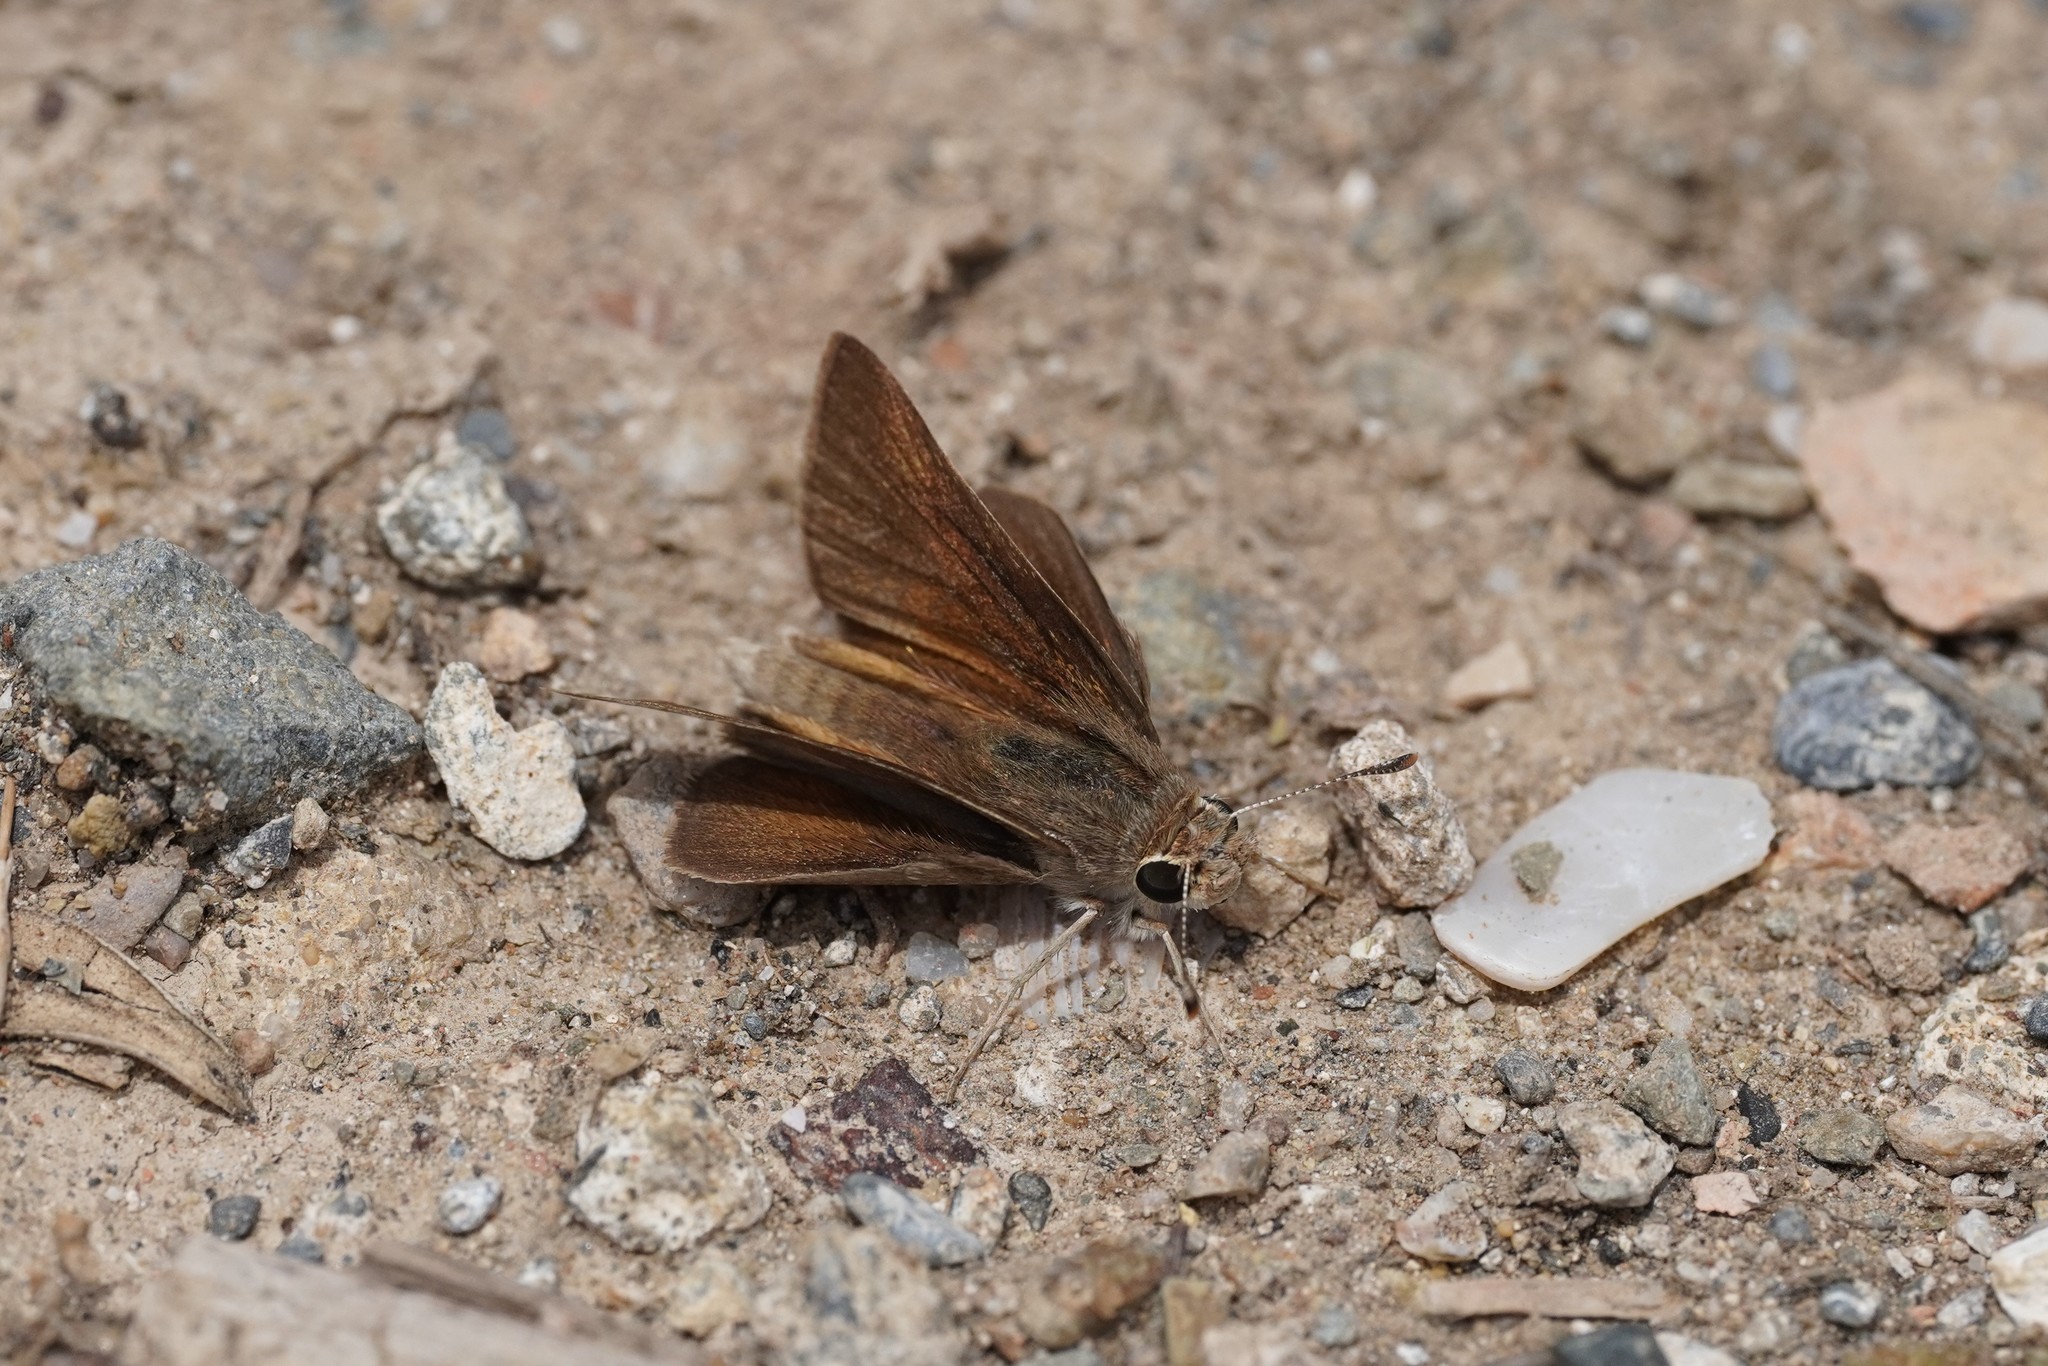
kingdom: Animalia
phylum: Arthropoda
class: Insecta
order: Lepidoptera
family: Hesperiidae
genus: Gegenes
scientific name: Gegenes nostrodamus
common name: Mediterranean skipper
